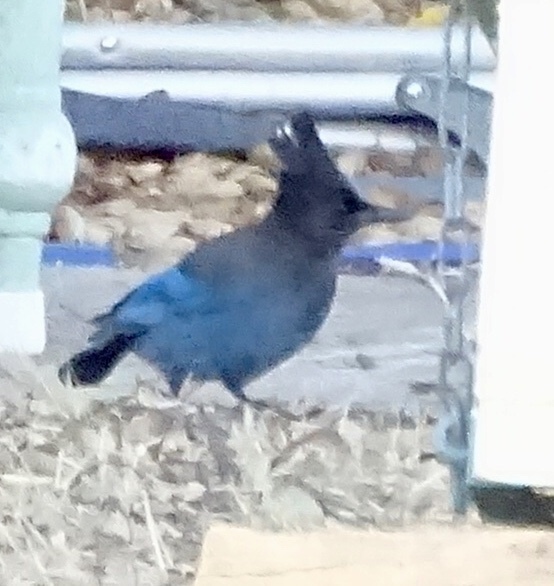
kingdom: Animalia
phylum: Chordata
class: Aves
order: Passeriformes
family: Corvidae
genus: Cyanocitta
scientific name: Cyanocitta stelleri
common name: Steller's jay
